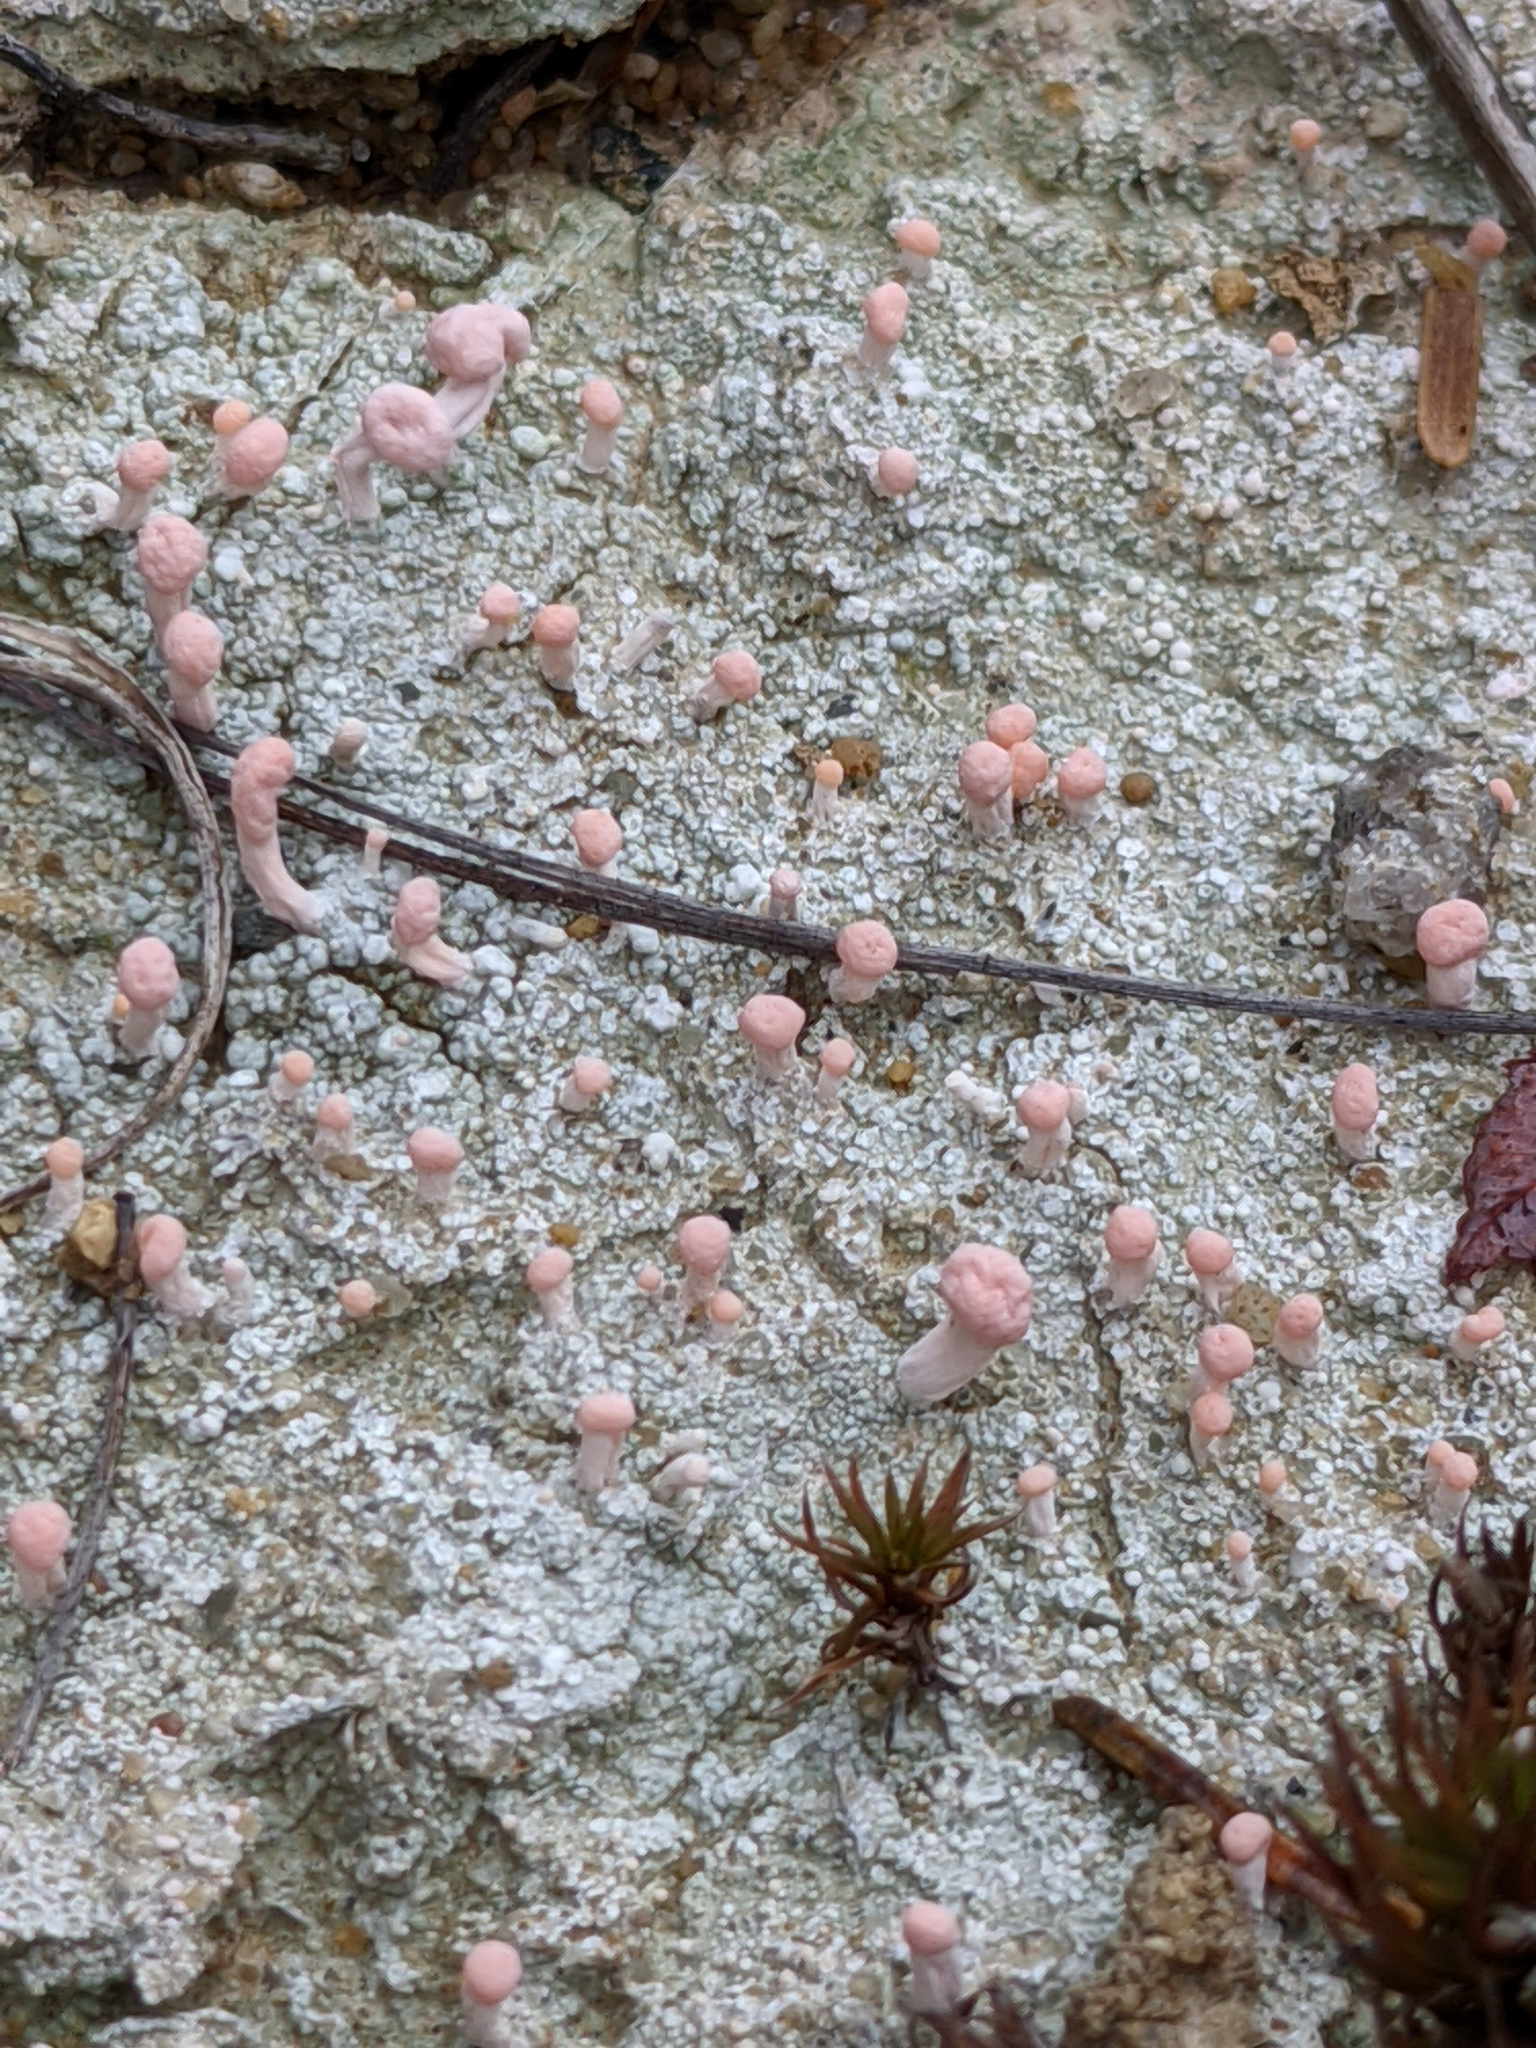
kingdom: Fungi
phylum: Ascomycota
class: Lecanoromycetes
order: Pertusariales
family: Icmadophilaceae
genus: Dibaeis
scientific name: Dibaeis baeomyces
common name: Pink earth lichen
